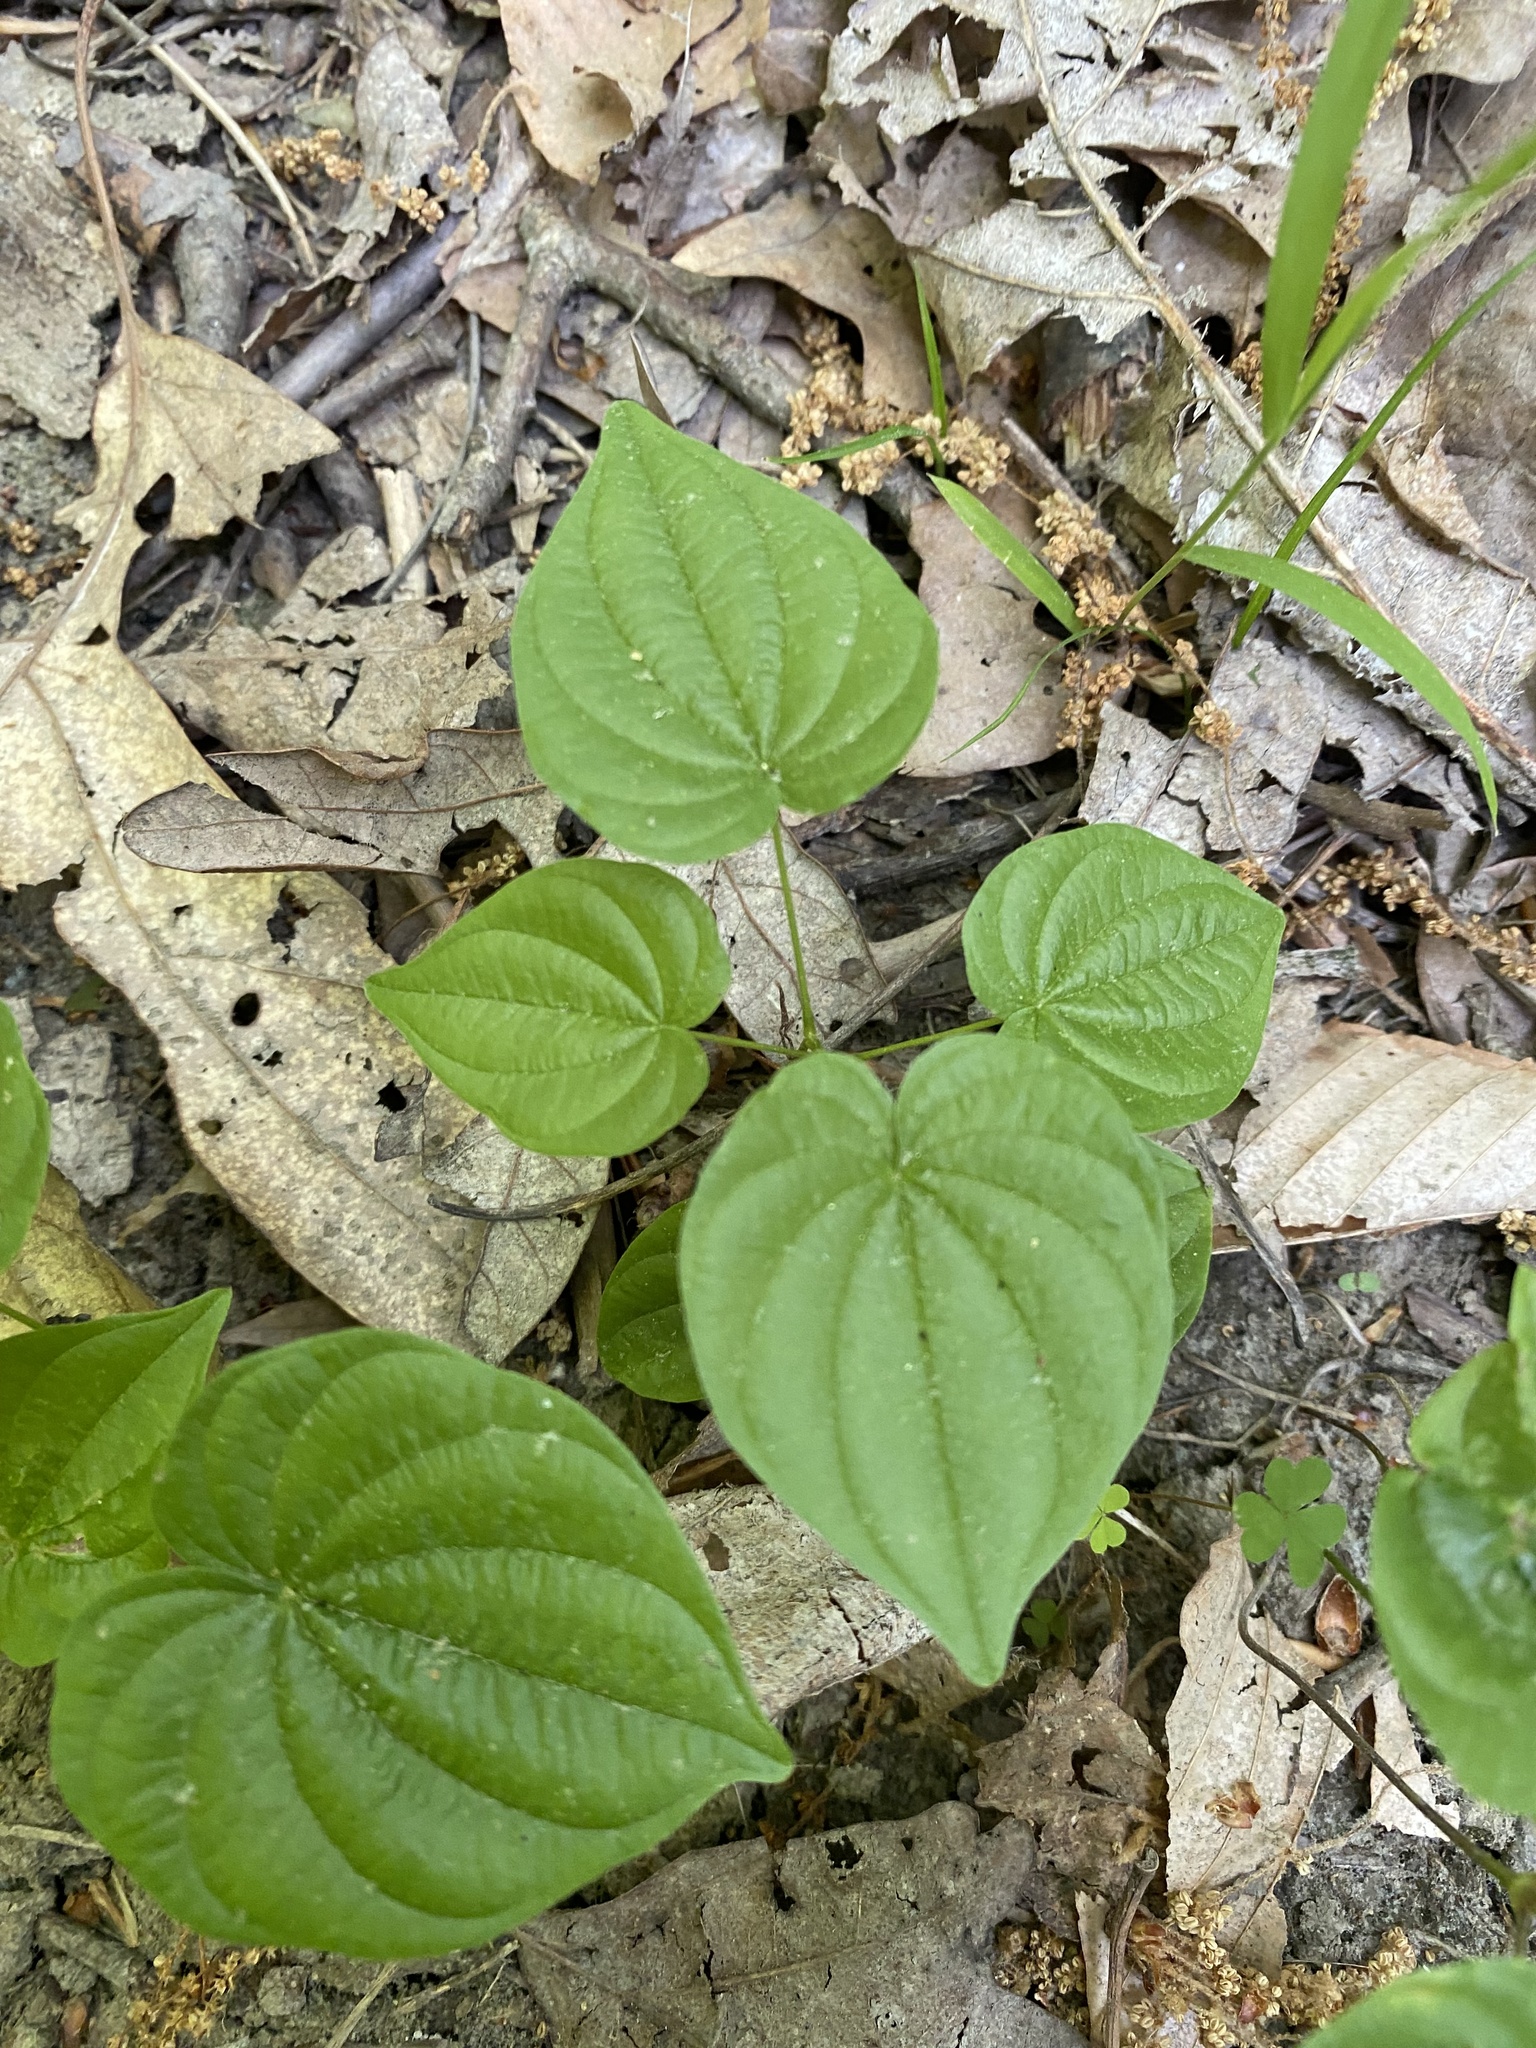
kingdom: Plantae
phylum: Tracheophyta
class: Liliopsida
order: Dioscoreales
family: Dioscoreaceae
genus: Dioscorea
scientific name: Dioscorea villosa
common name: Wild yam
